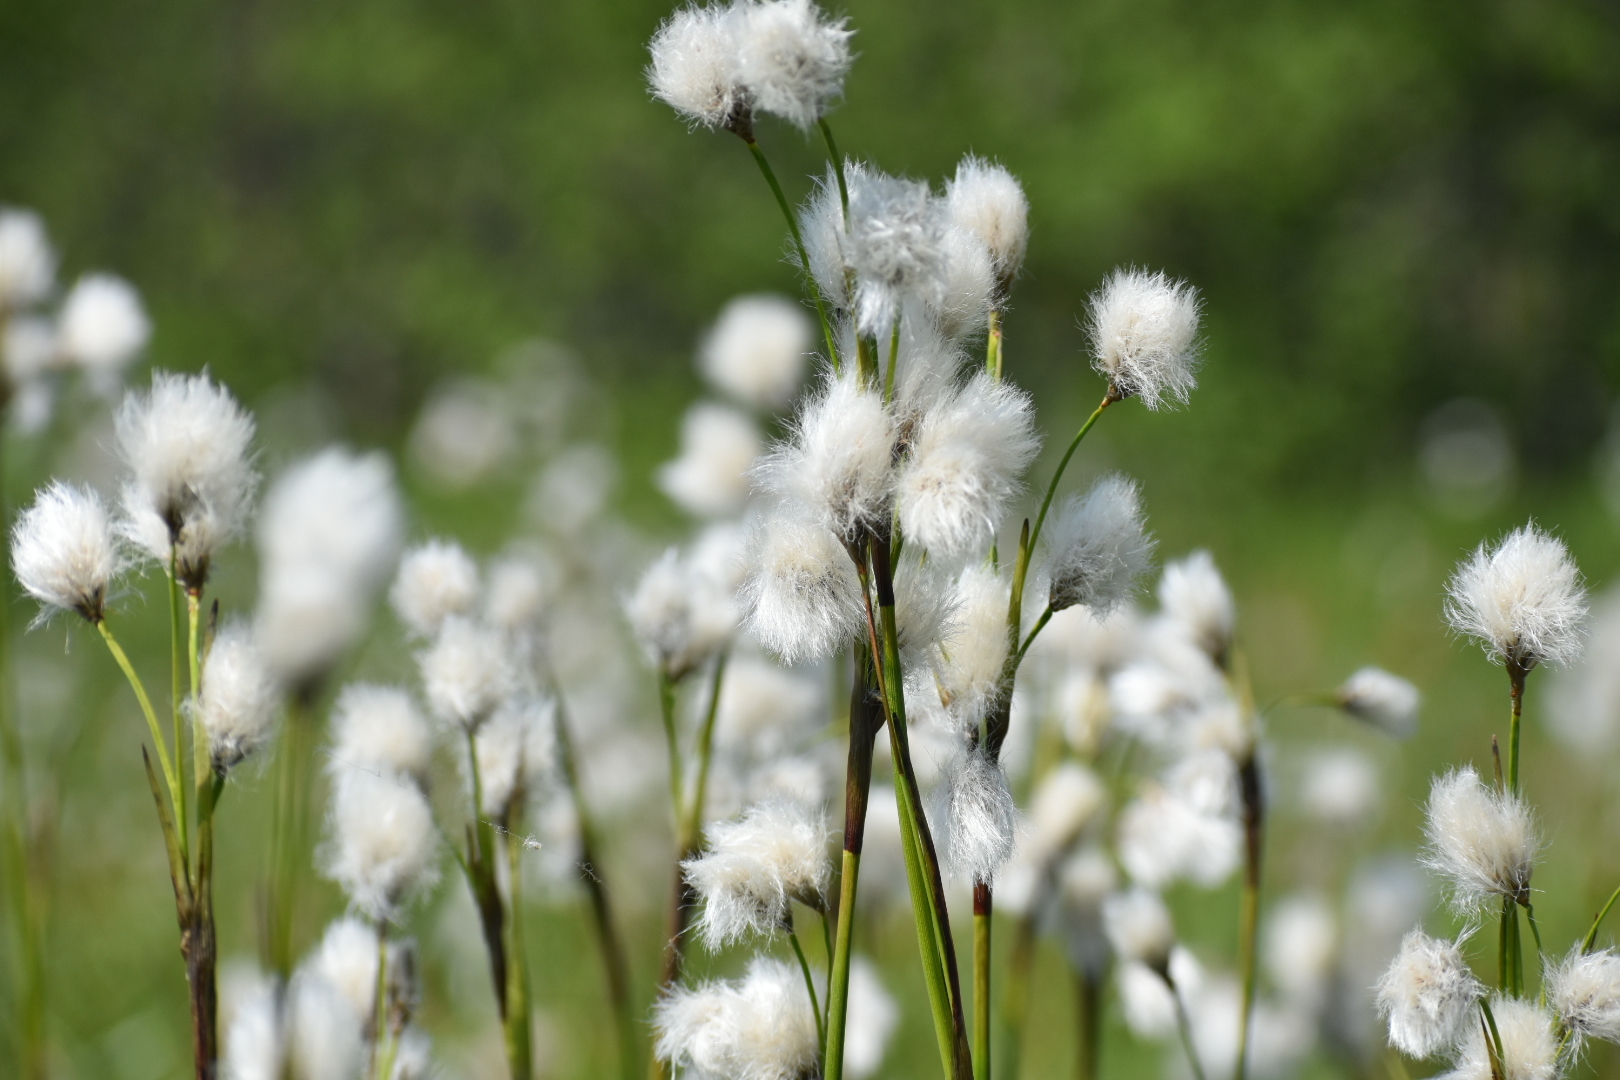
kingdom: Plantae
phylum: Tracheophyta
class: Liliopsida
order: Poales
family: Cyperaceae
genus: Eriophorum
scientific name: Eriophorum angustifolium
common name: Common cottongrass
